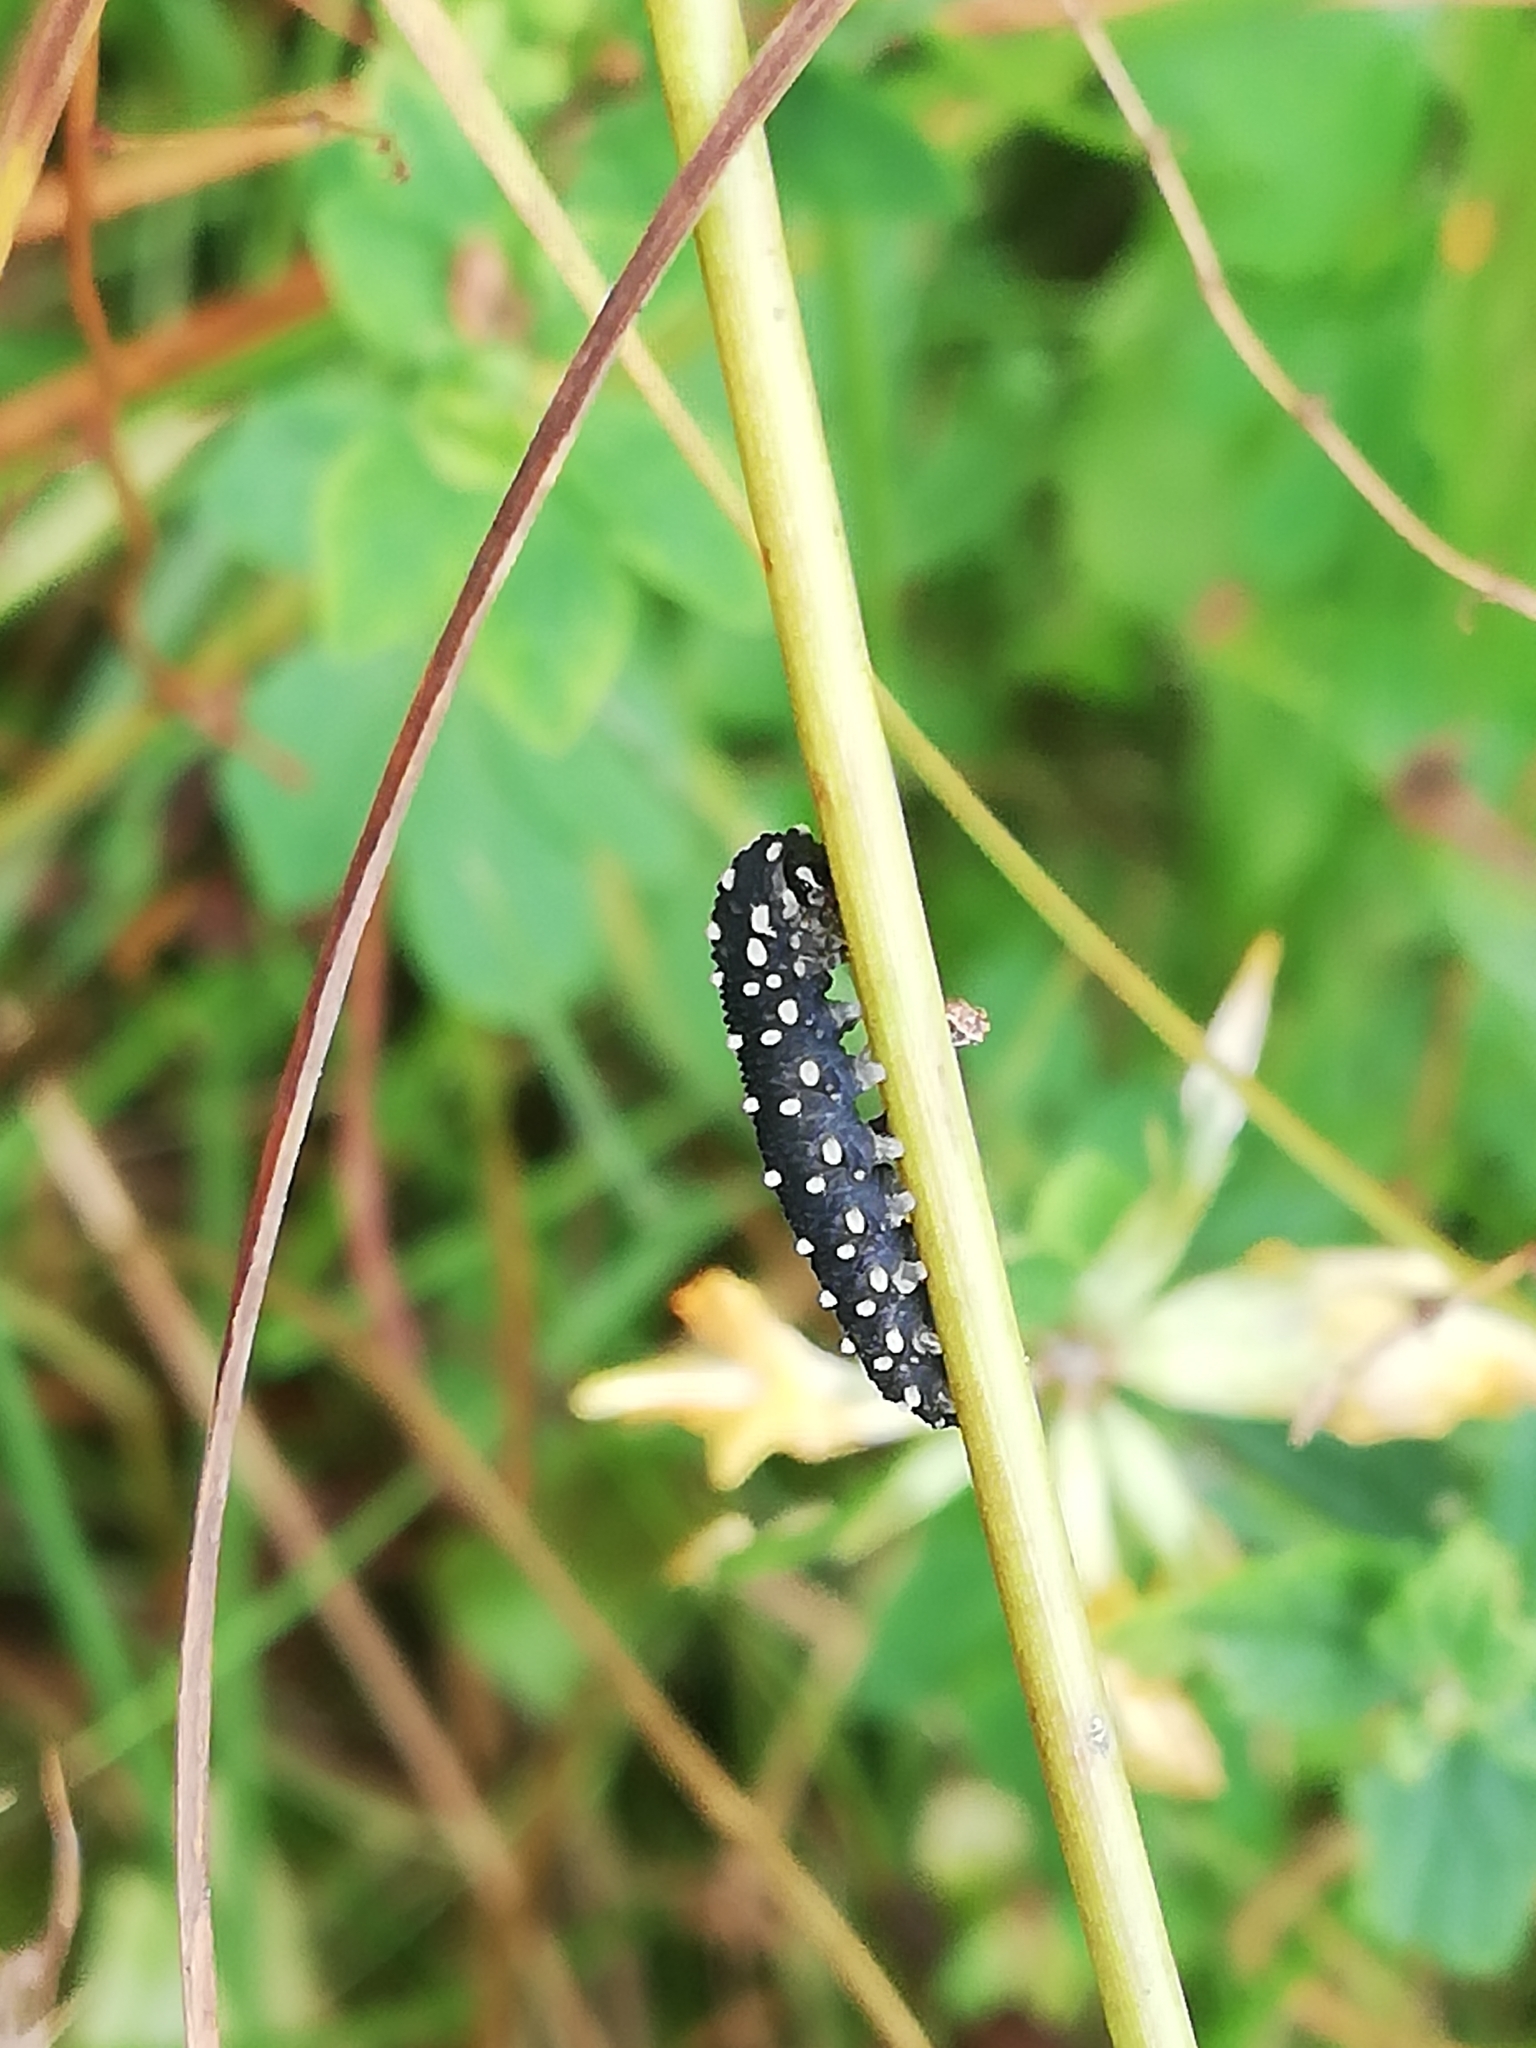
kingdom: Animalia
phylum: Arthropoda
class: Insecta
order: Hymenoptera
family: Tenthredinidae
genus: Athalia
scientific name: Athalia scutellariae
